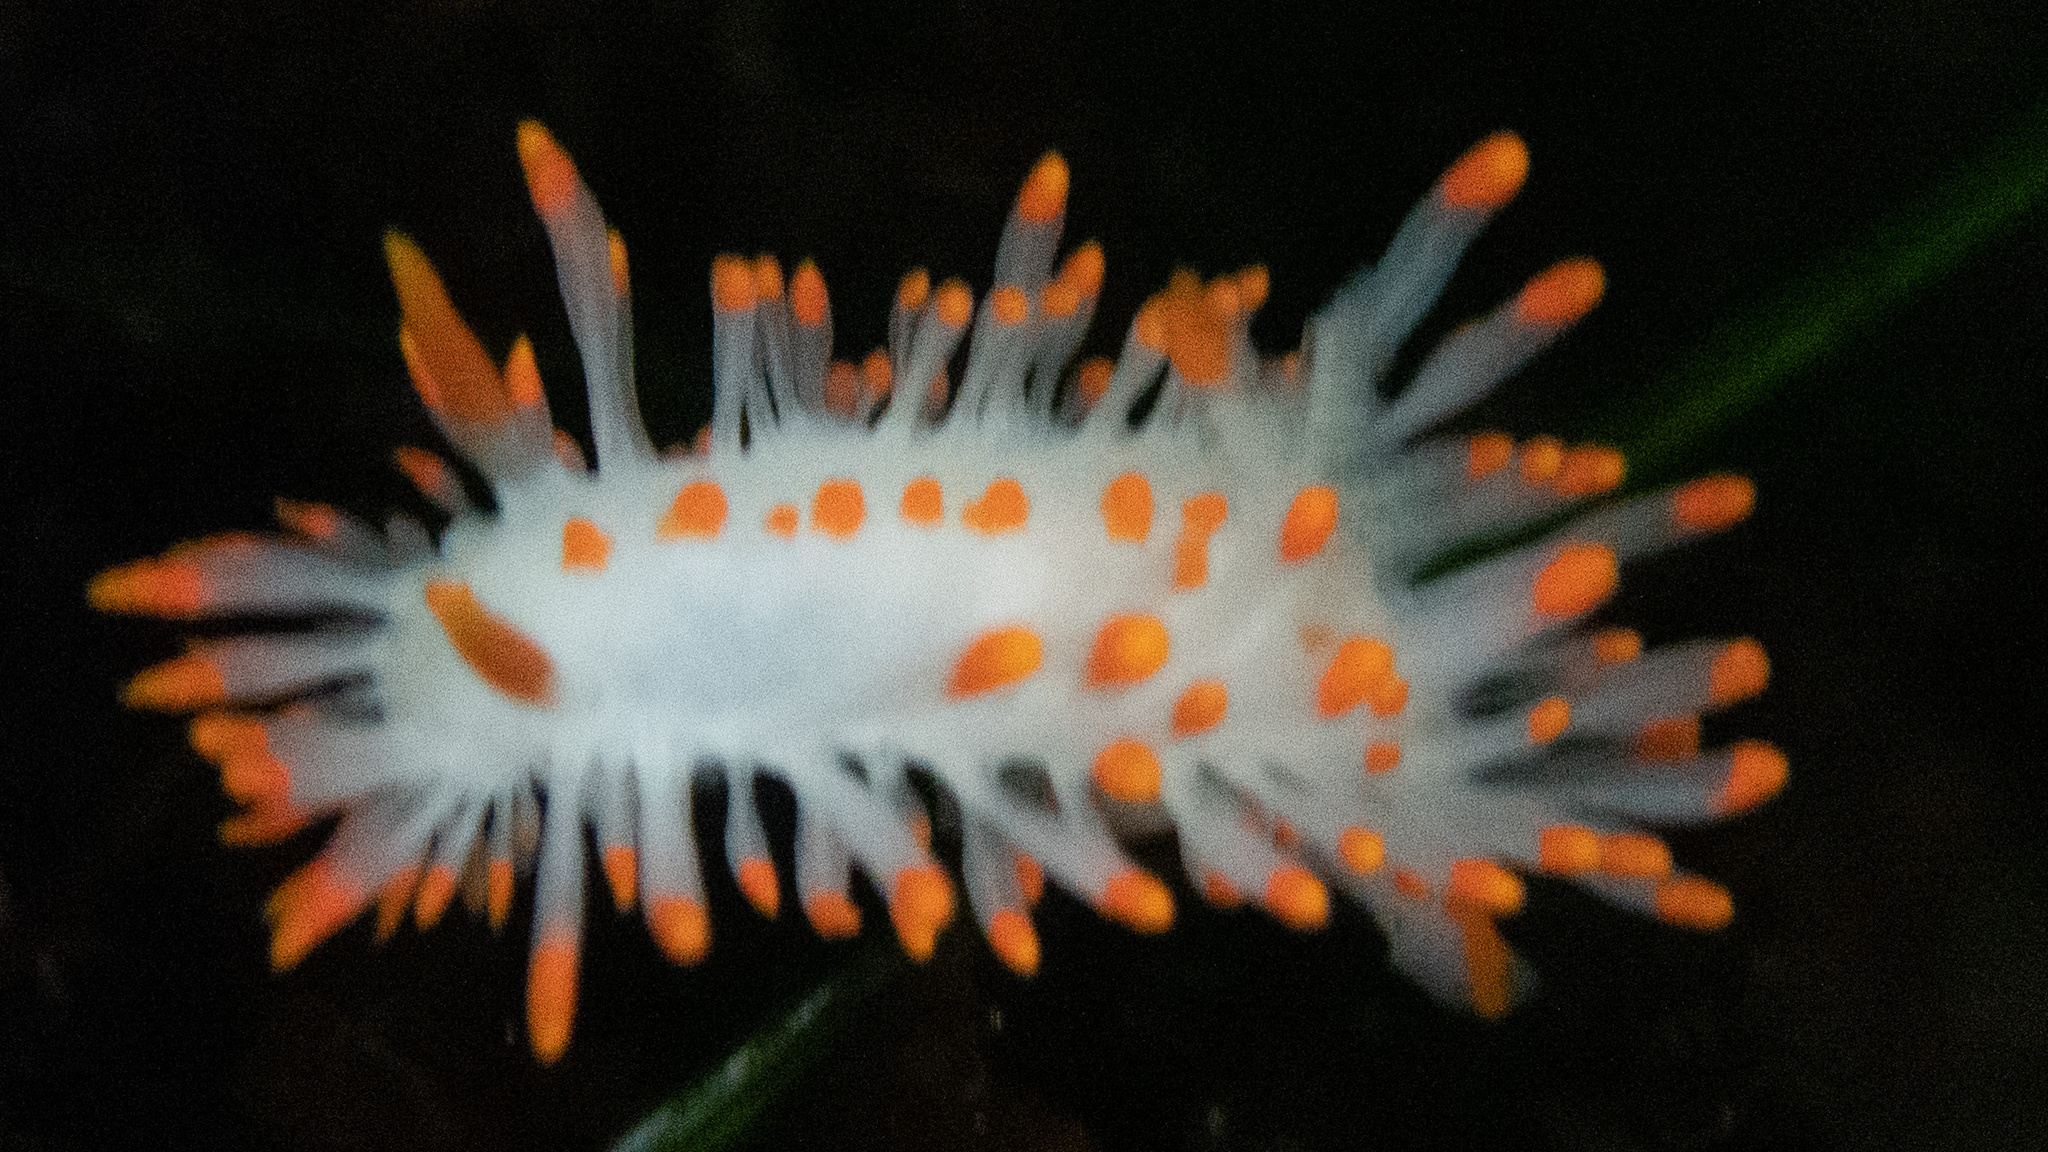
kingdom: Animalia
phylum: Mollusca
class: Gastropoda
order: Nudibranchia
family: Polyceridae
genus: Limacia
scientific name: Limacia mcdonaldi
